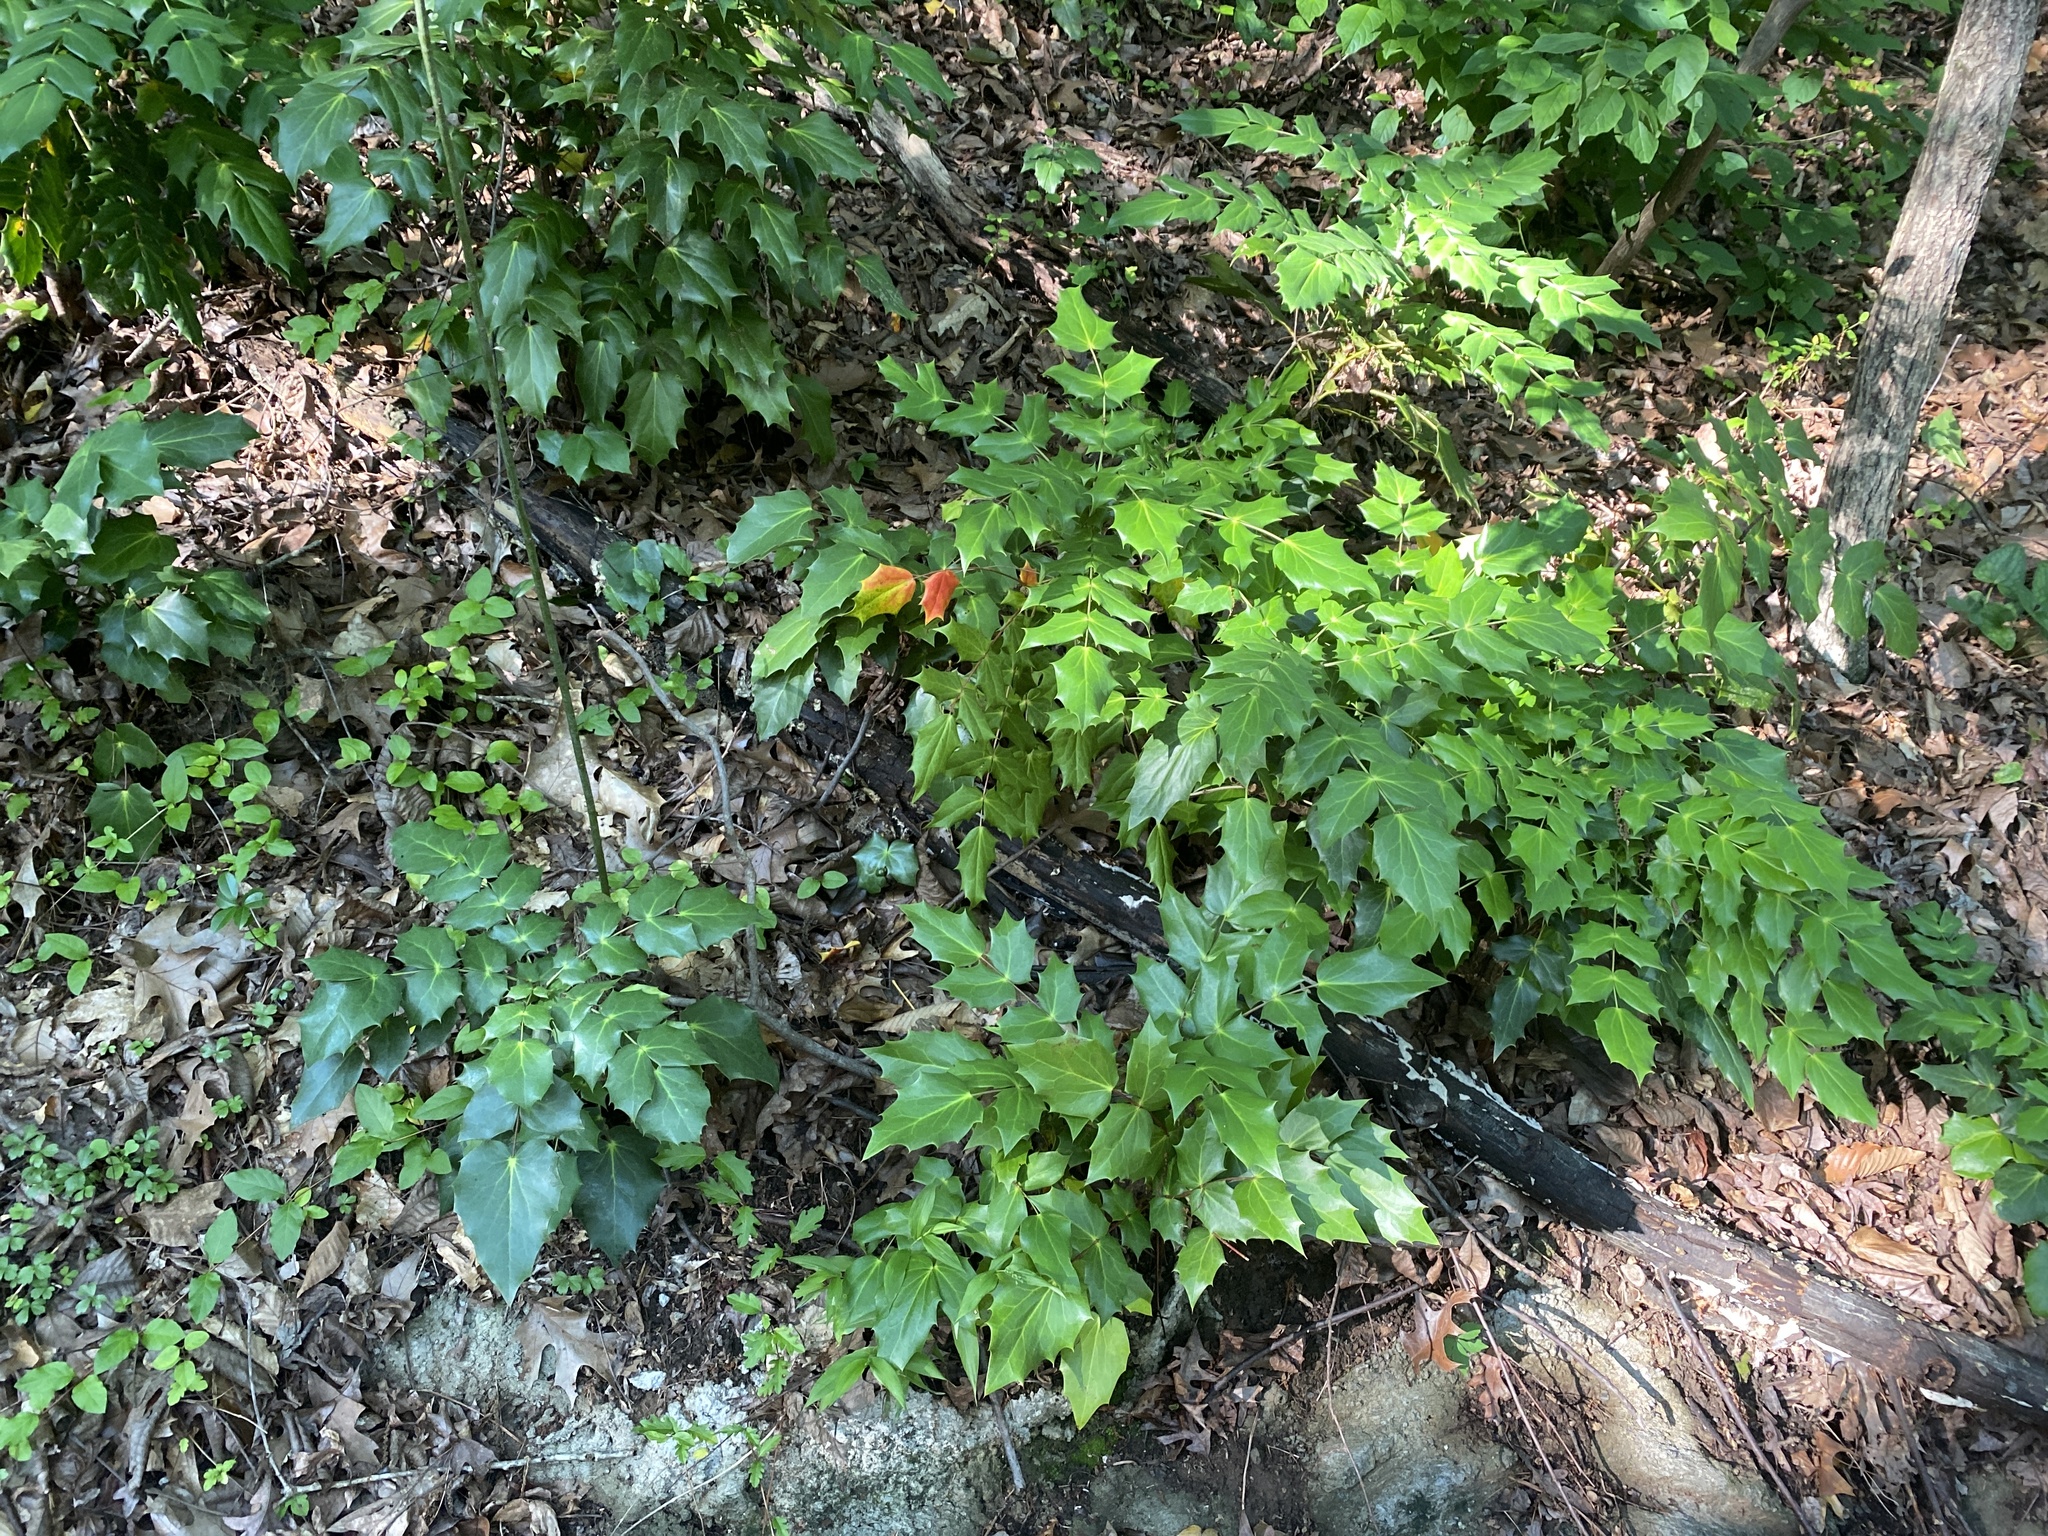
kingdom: Plantae
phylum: Tracheophyta
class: Magnoliopsida
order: Ranunculales
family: Berberidaceae
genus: Mahonia
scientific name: Mahonia bealei
